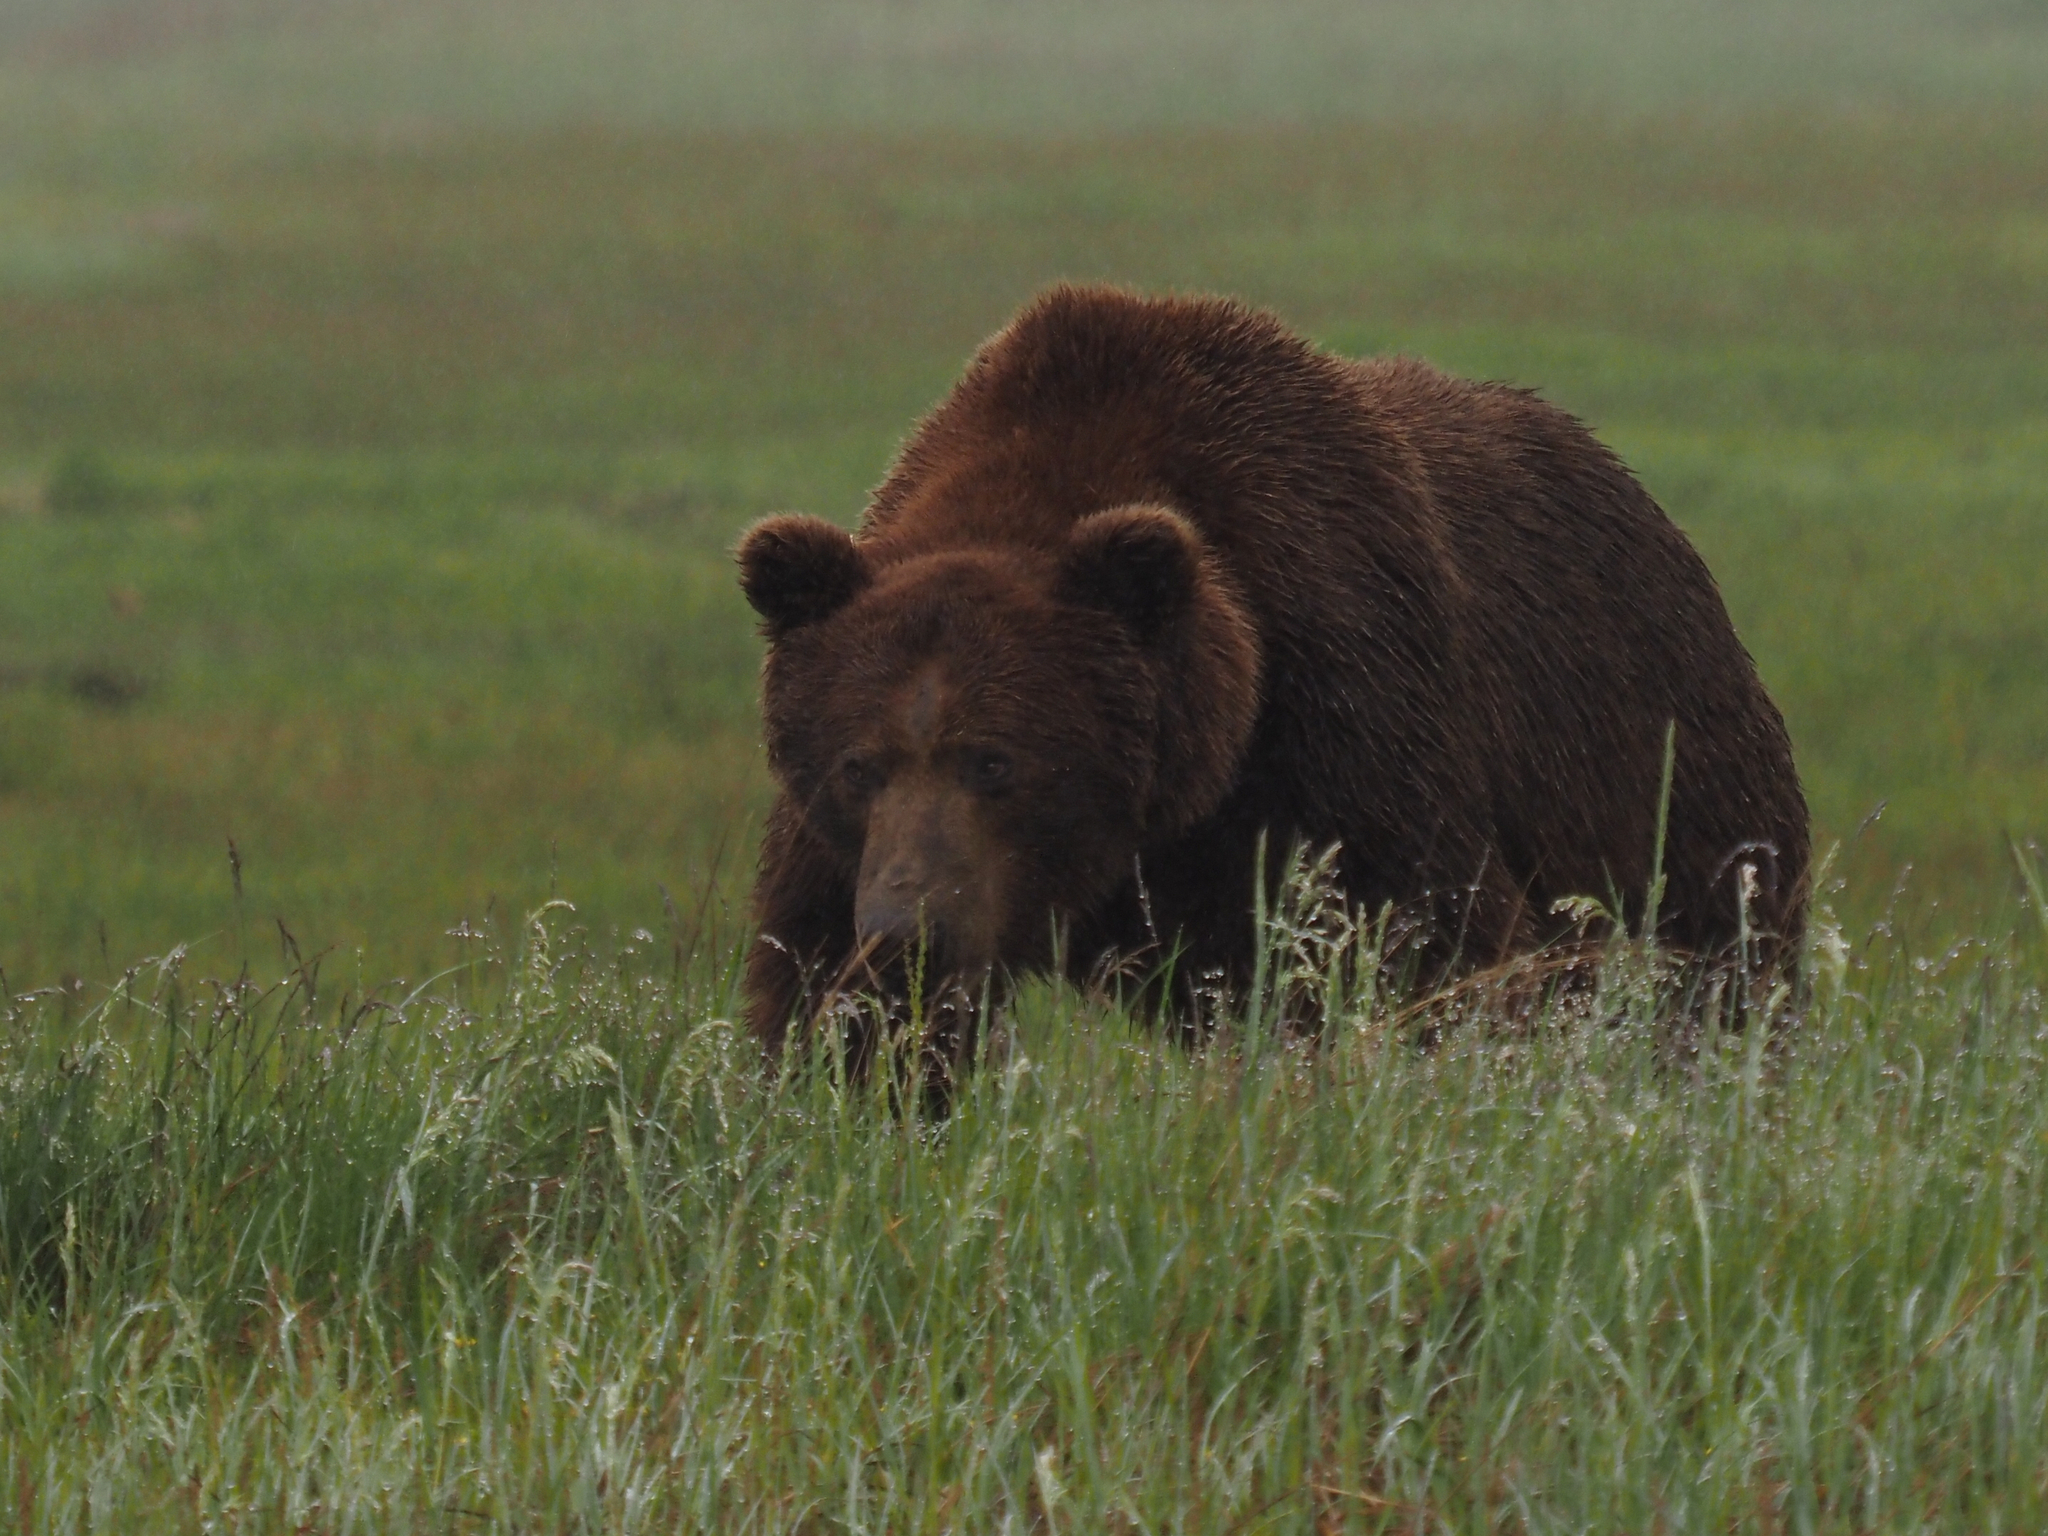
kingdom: Animalia
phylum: Chordata
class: Mammalia
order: Carnivora
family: Ursidae
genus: Ursus
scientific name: Ursus arctos
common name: Brown bear
